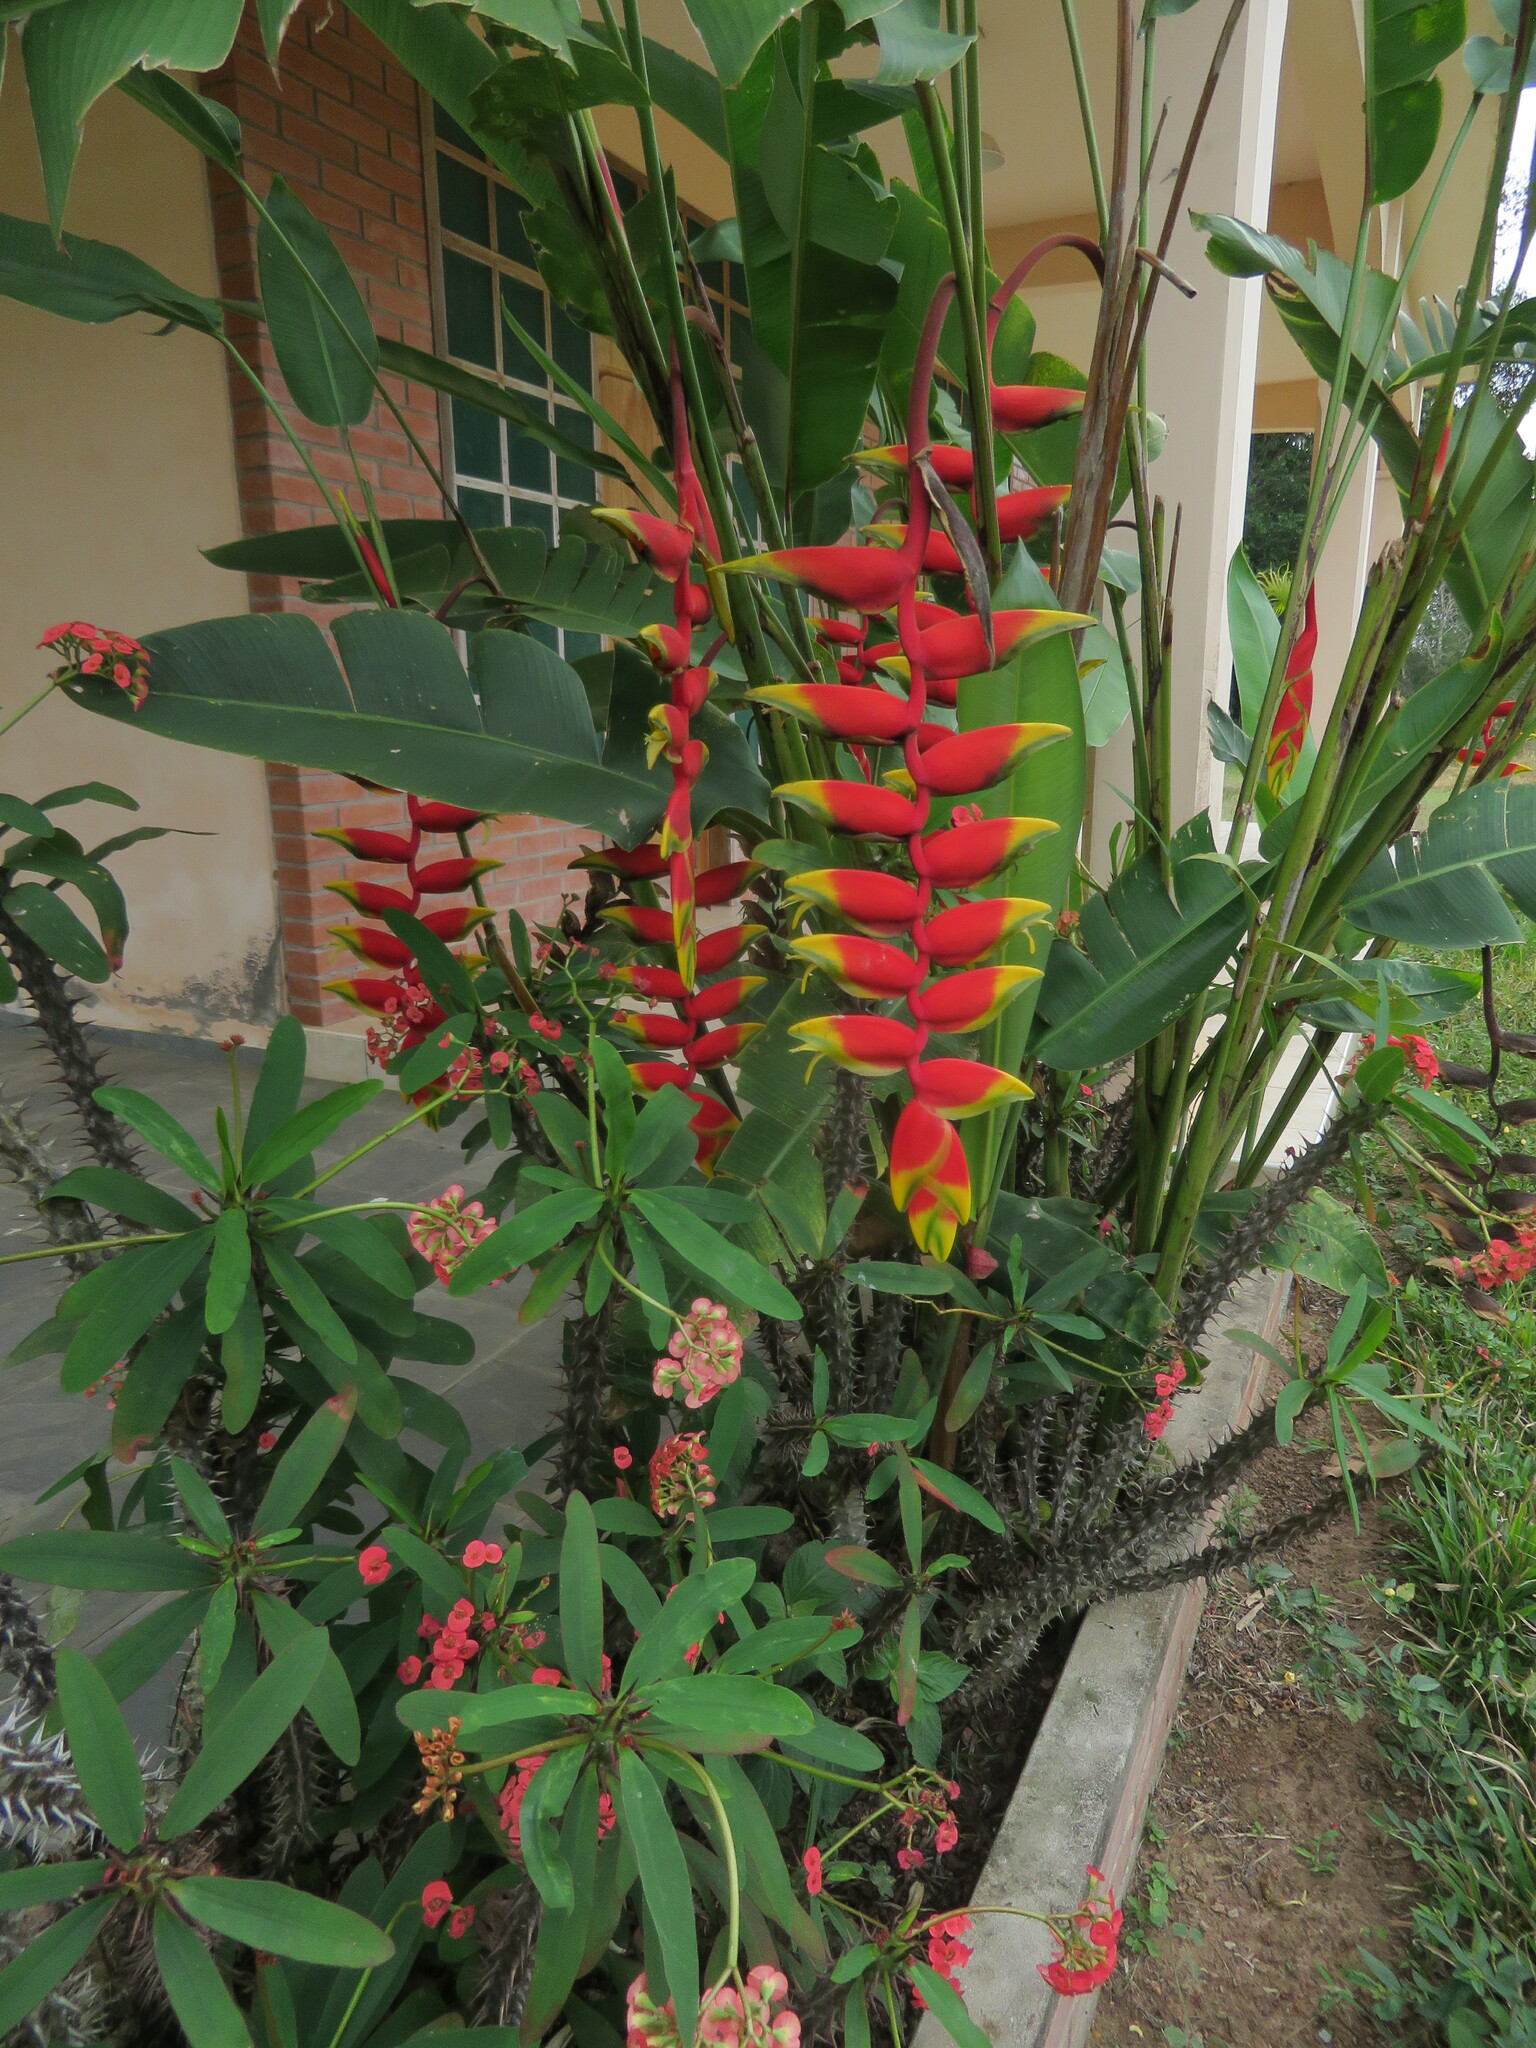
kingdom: Plantae
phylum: Tracheophyta
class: Liliopsida
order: Zingiberales
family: Heliconiaceae
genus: Heliconia
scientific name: Heliconia rostrata
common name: False bird of paradise
